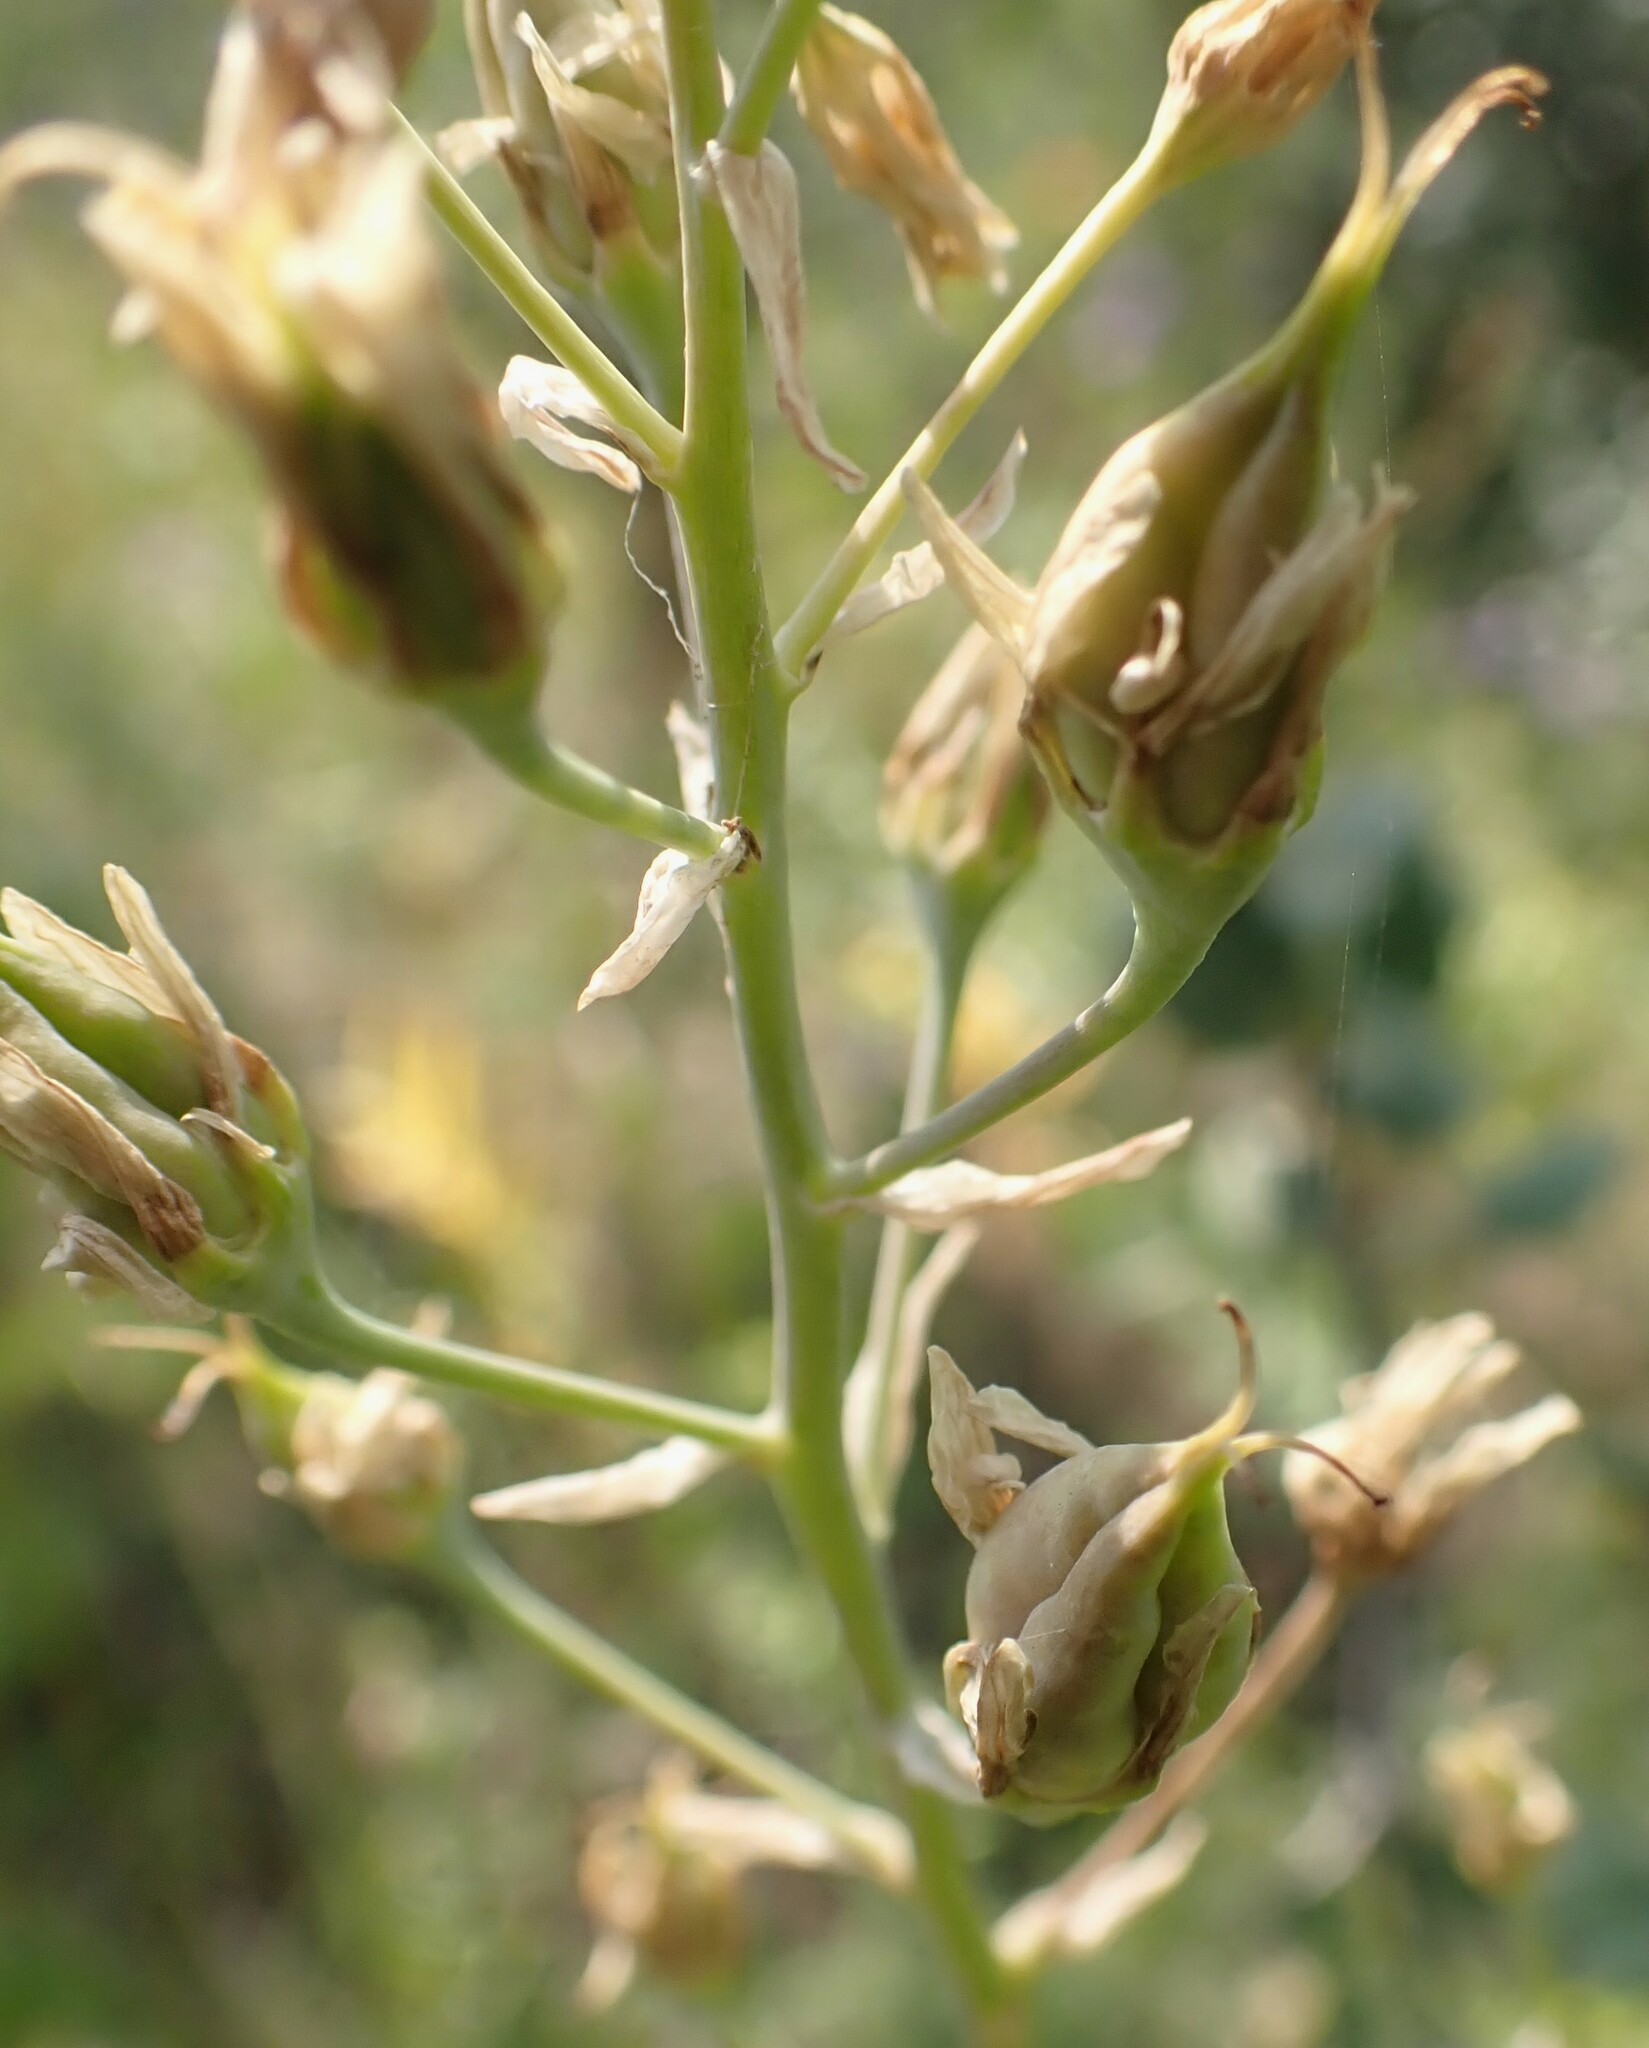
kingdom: Plantae
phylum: Tracheophyta
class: Liliopsida
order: Liliales
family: Melanthiaceae
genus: Anticlea
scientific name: Anticlea elegans
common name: Mountain death camas
